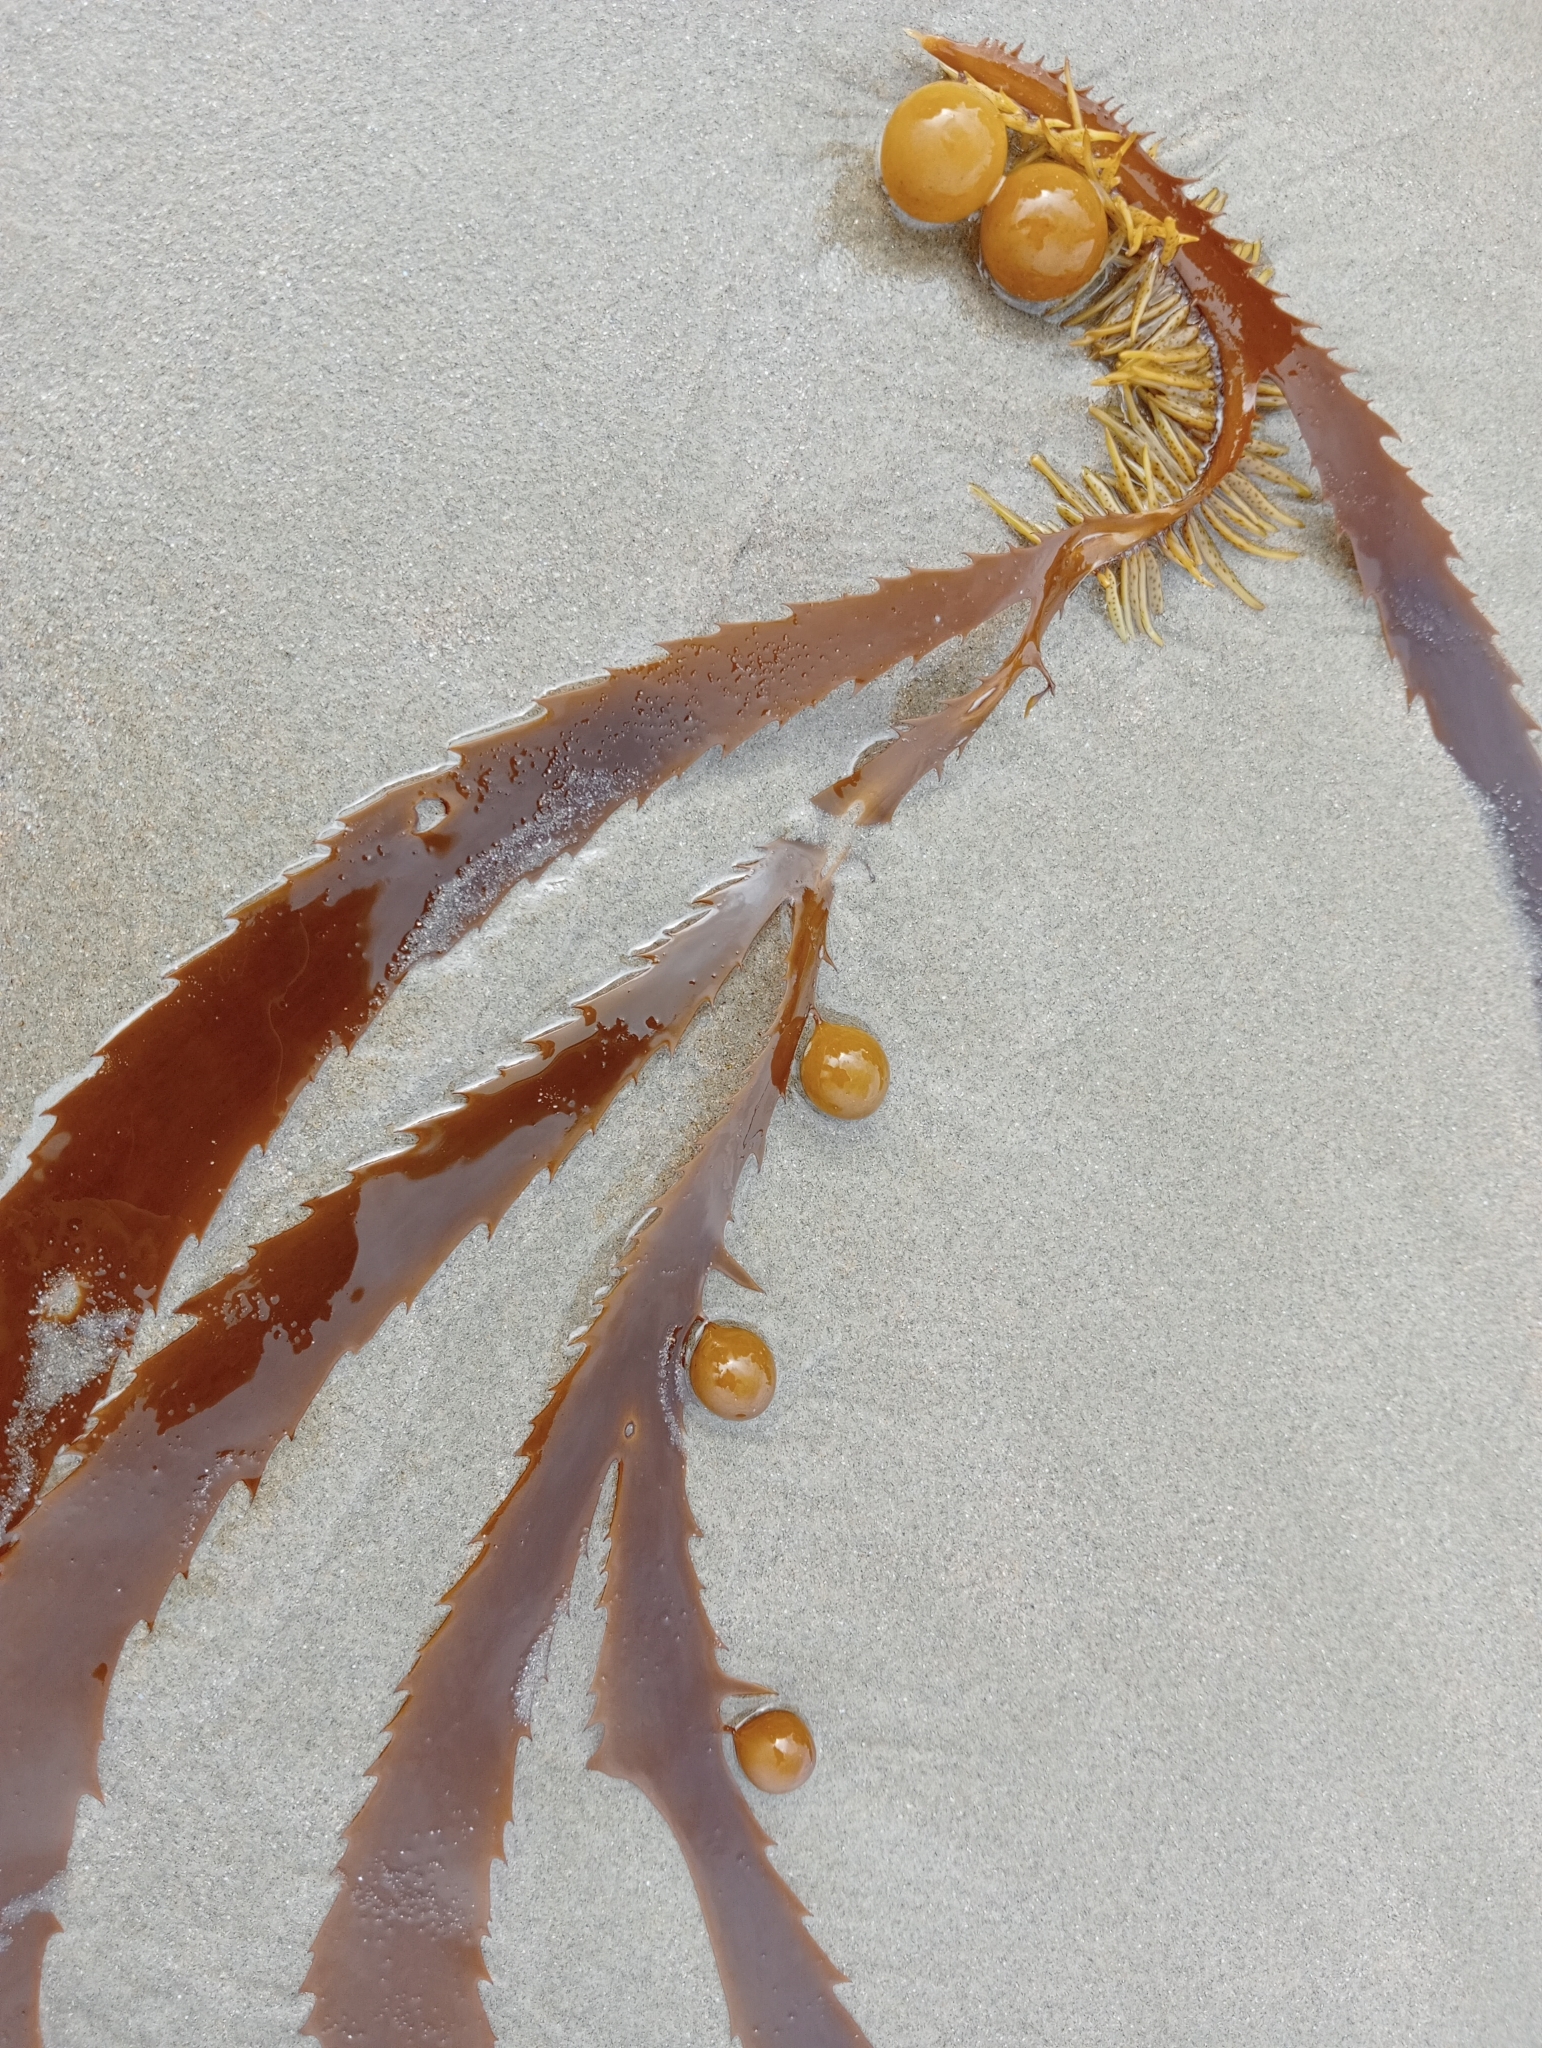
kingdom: Chromista
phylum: Ochrophyta
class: Phaeophyceae
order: Fucales
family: Seirococcaceae
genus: Marginariella
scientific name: Marginariella urvilliana
